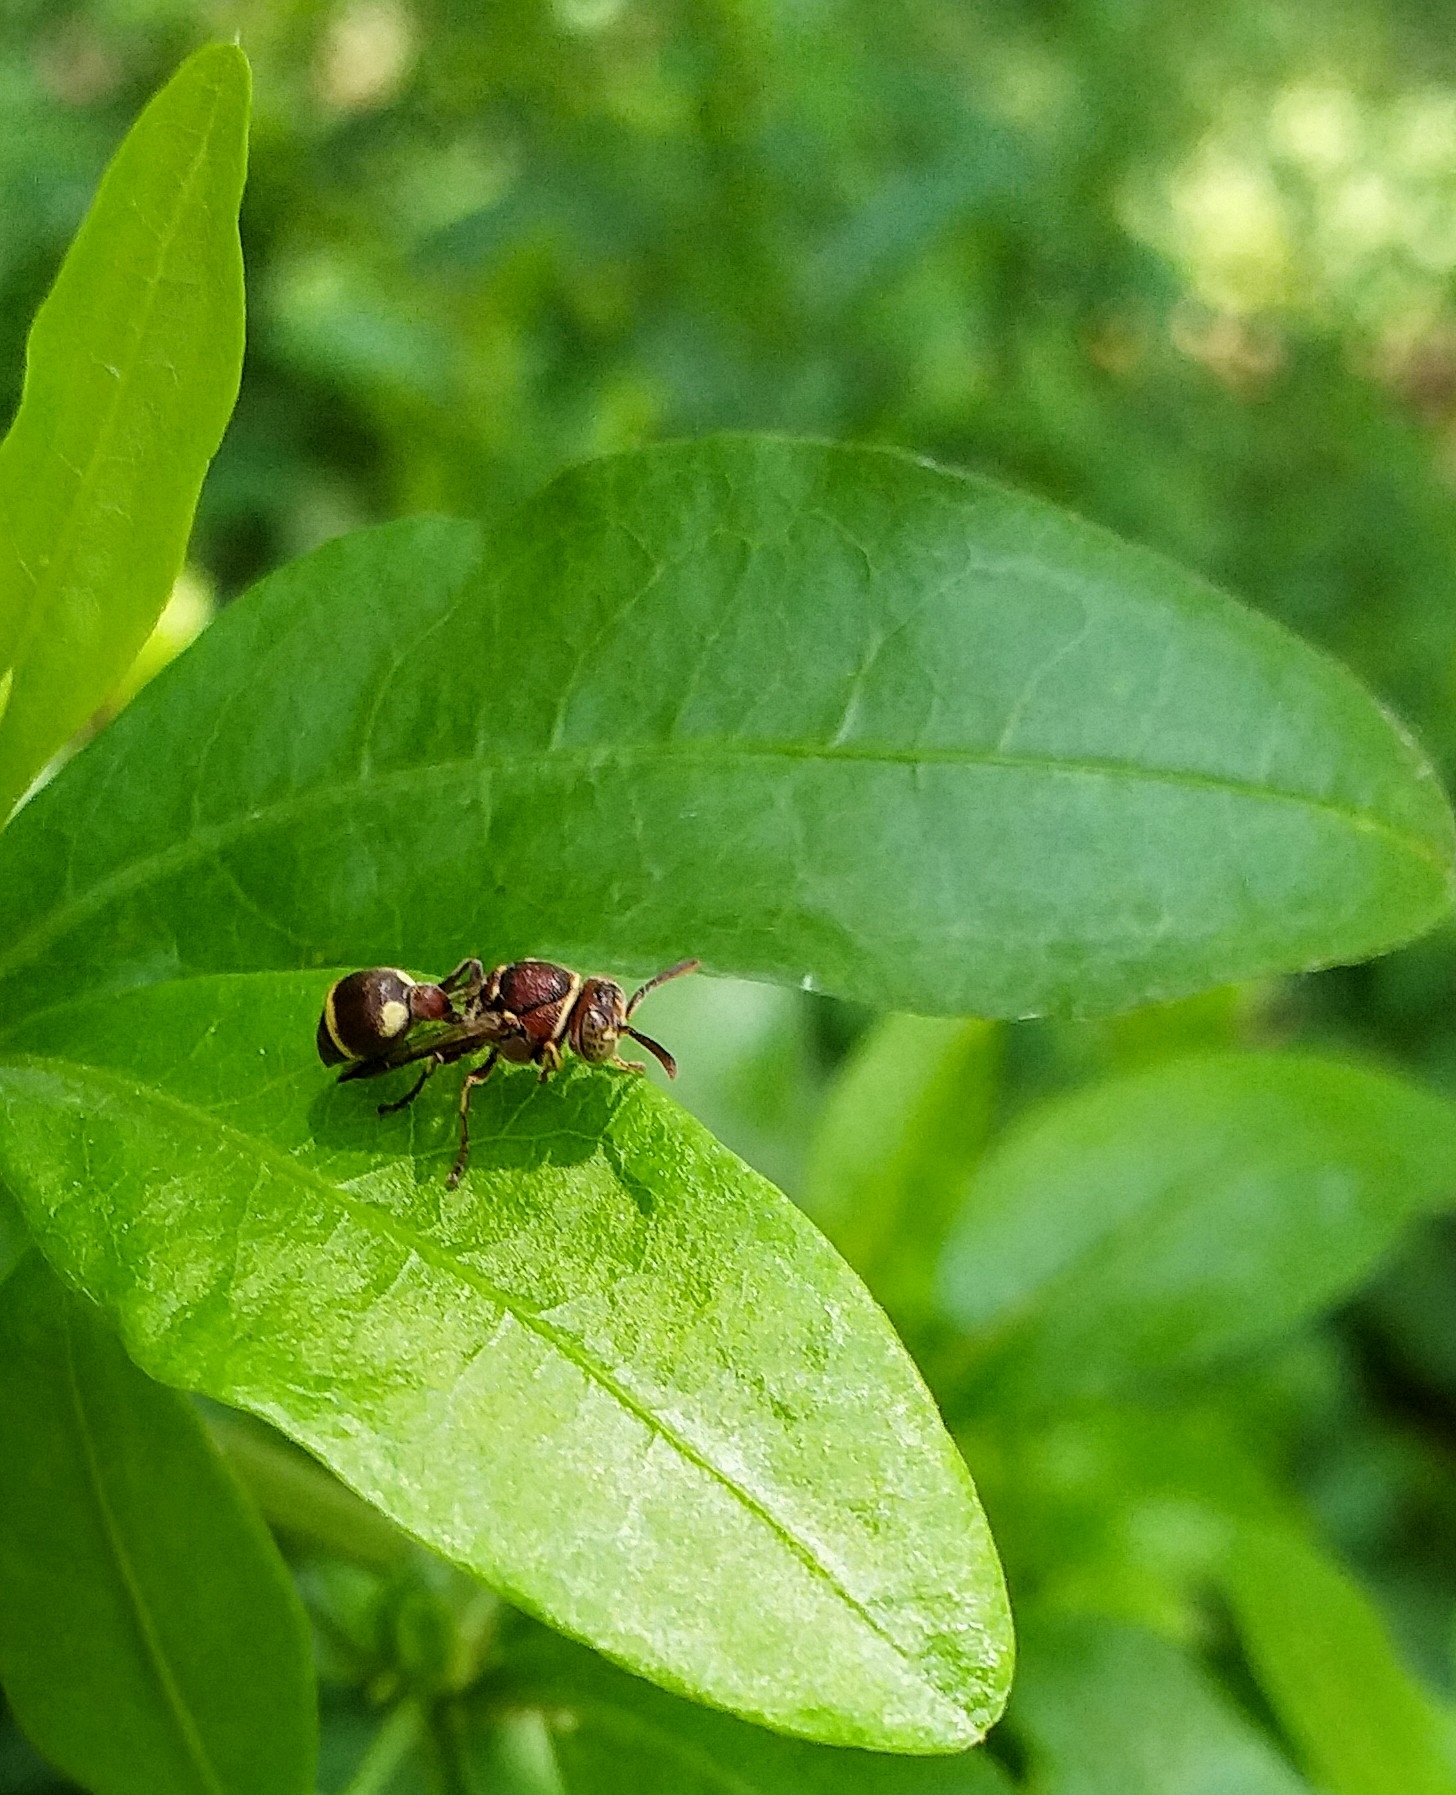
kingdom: Animalia
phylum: Arthropoda
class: Insecta
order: Hymenoptera
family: Vespidae
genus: Ropalidia
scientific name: Ropalidia cyathiformis
